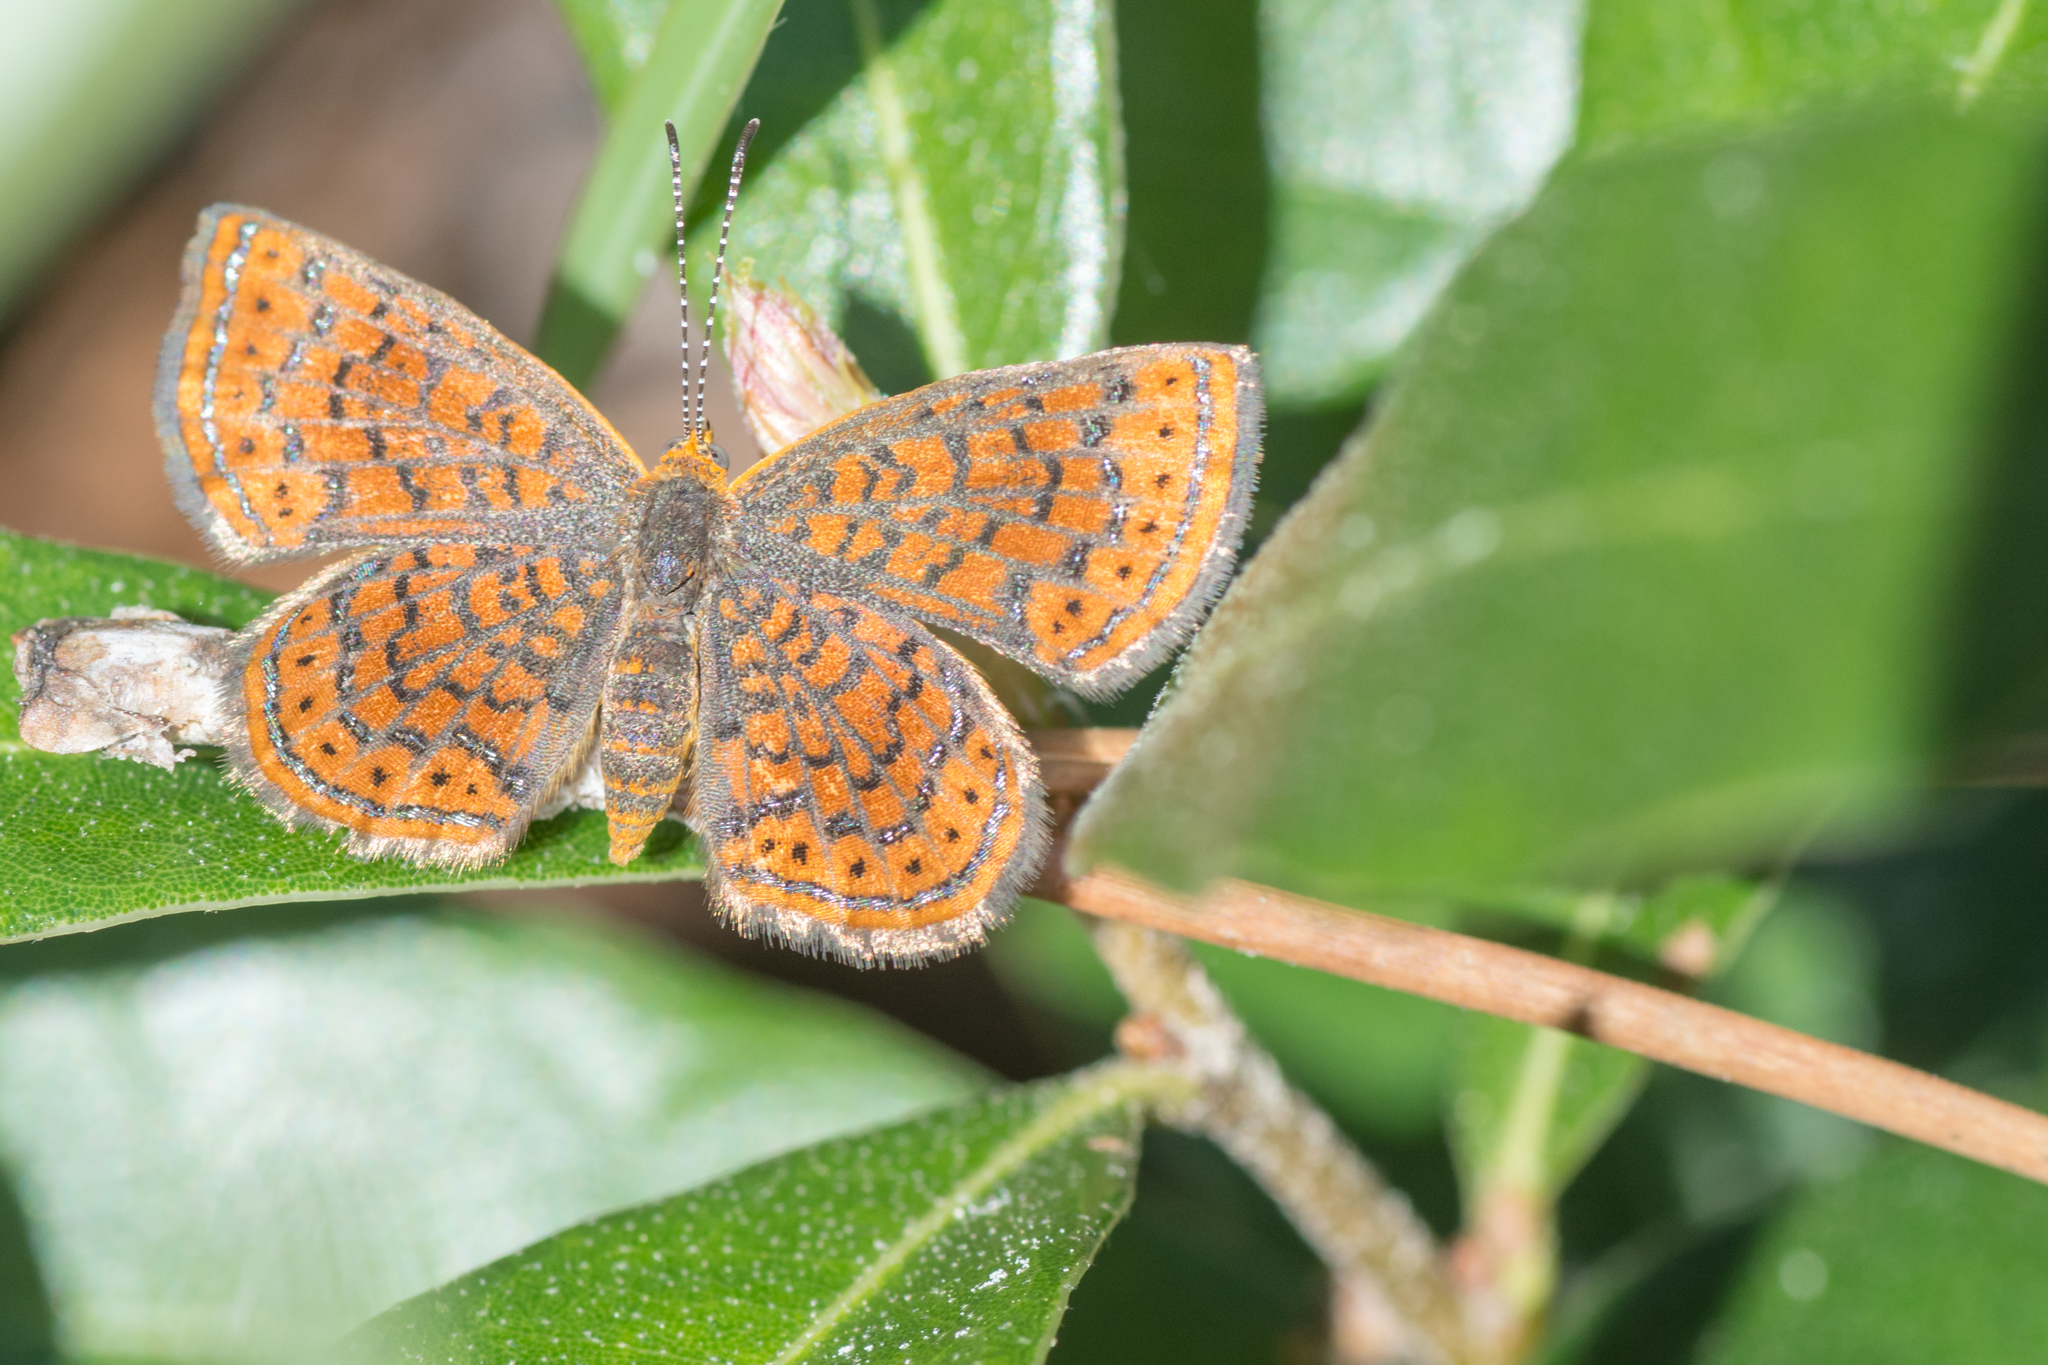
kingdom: Animalia
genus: Calephelis
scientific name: Calephelis virginiensis
